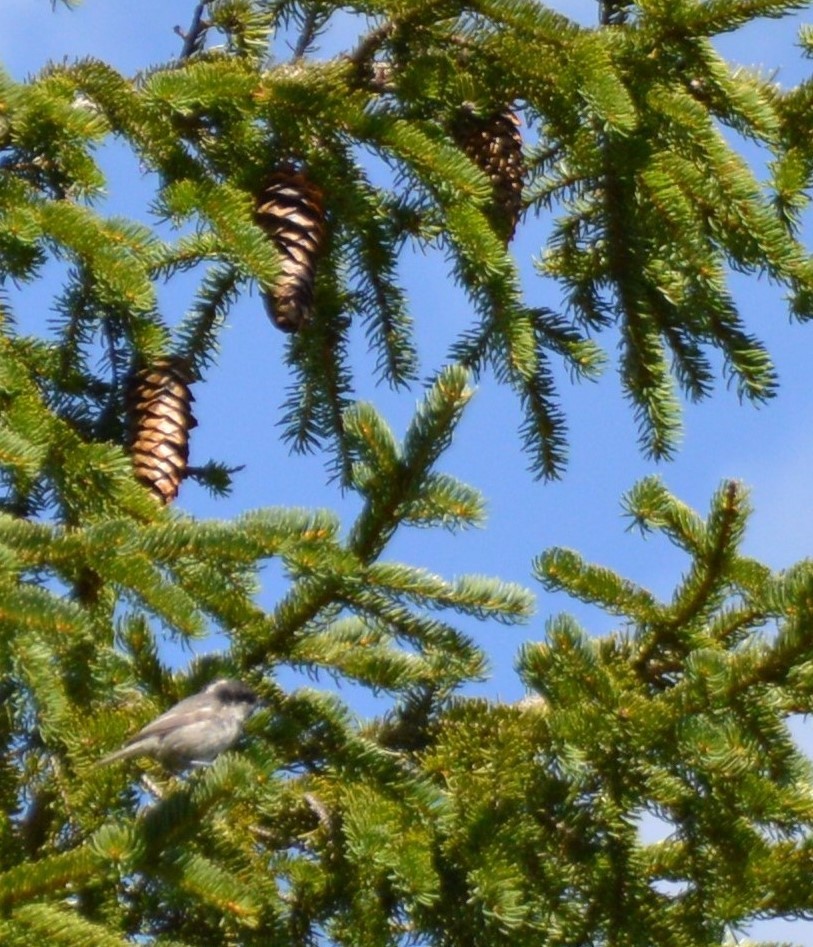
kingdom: Animalia
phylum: Chordata
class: Aves
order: Passeriformes
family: Paridae
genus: Periparus
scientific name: Periparus ater
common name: Coal tit
